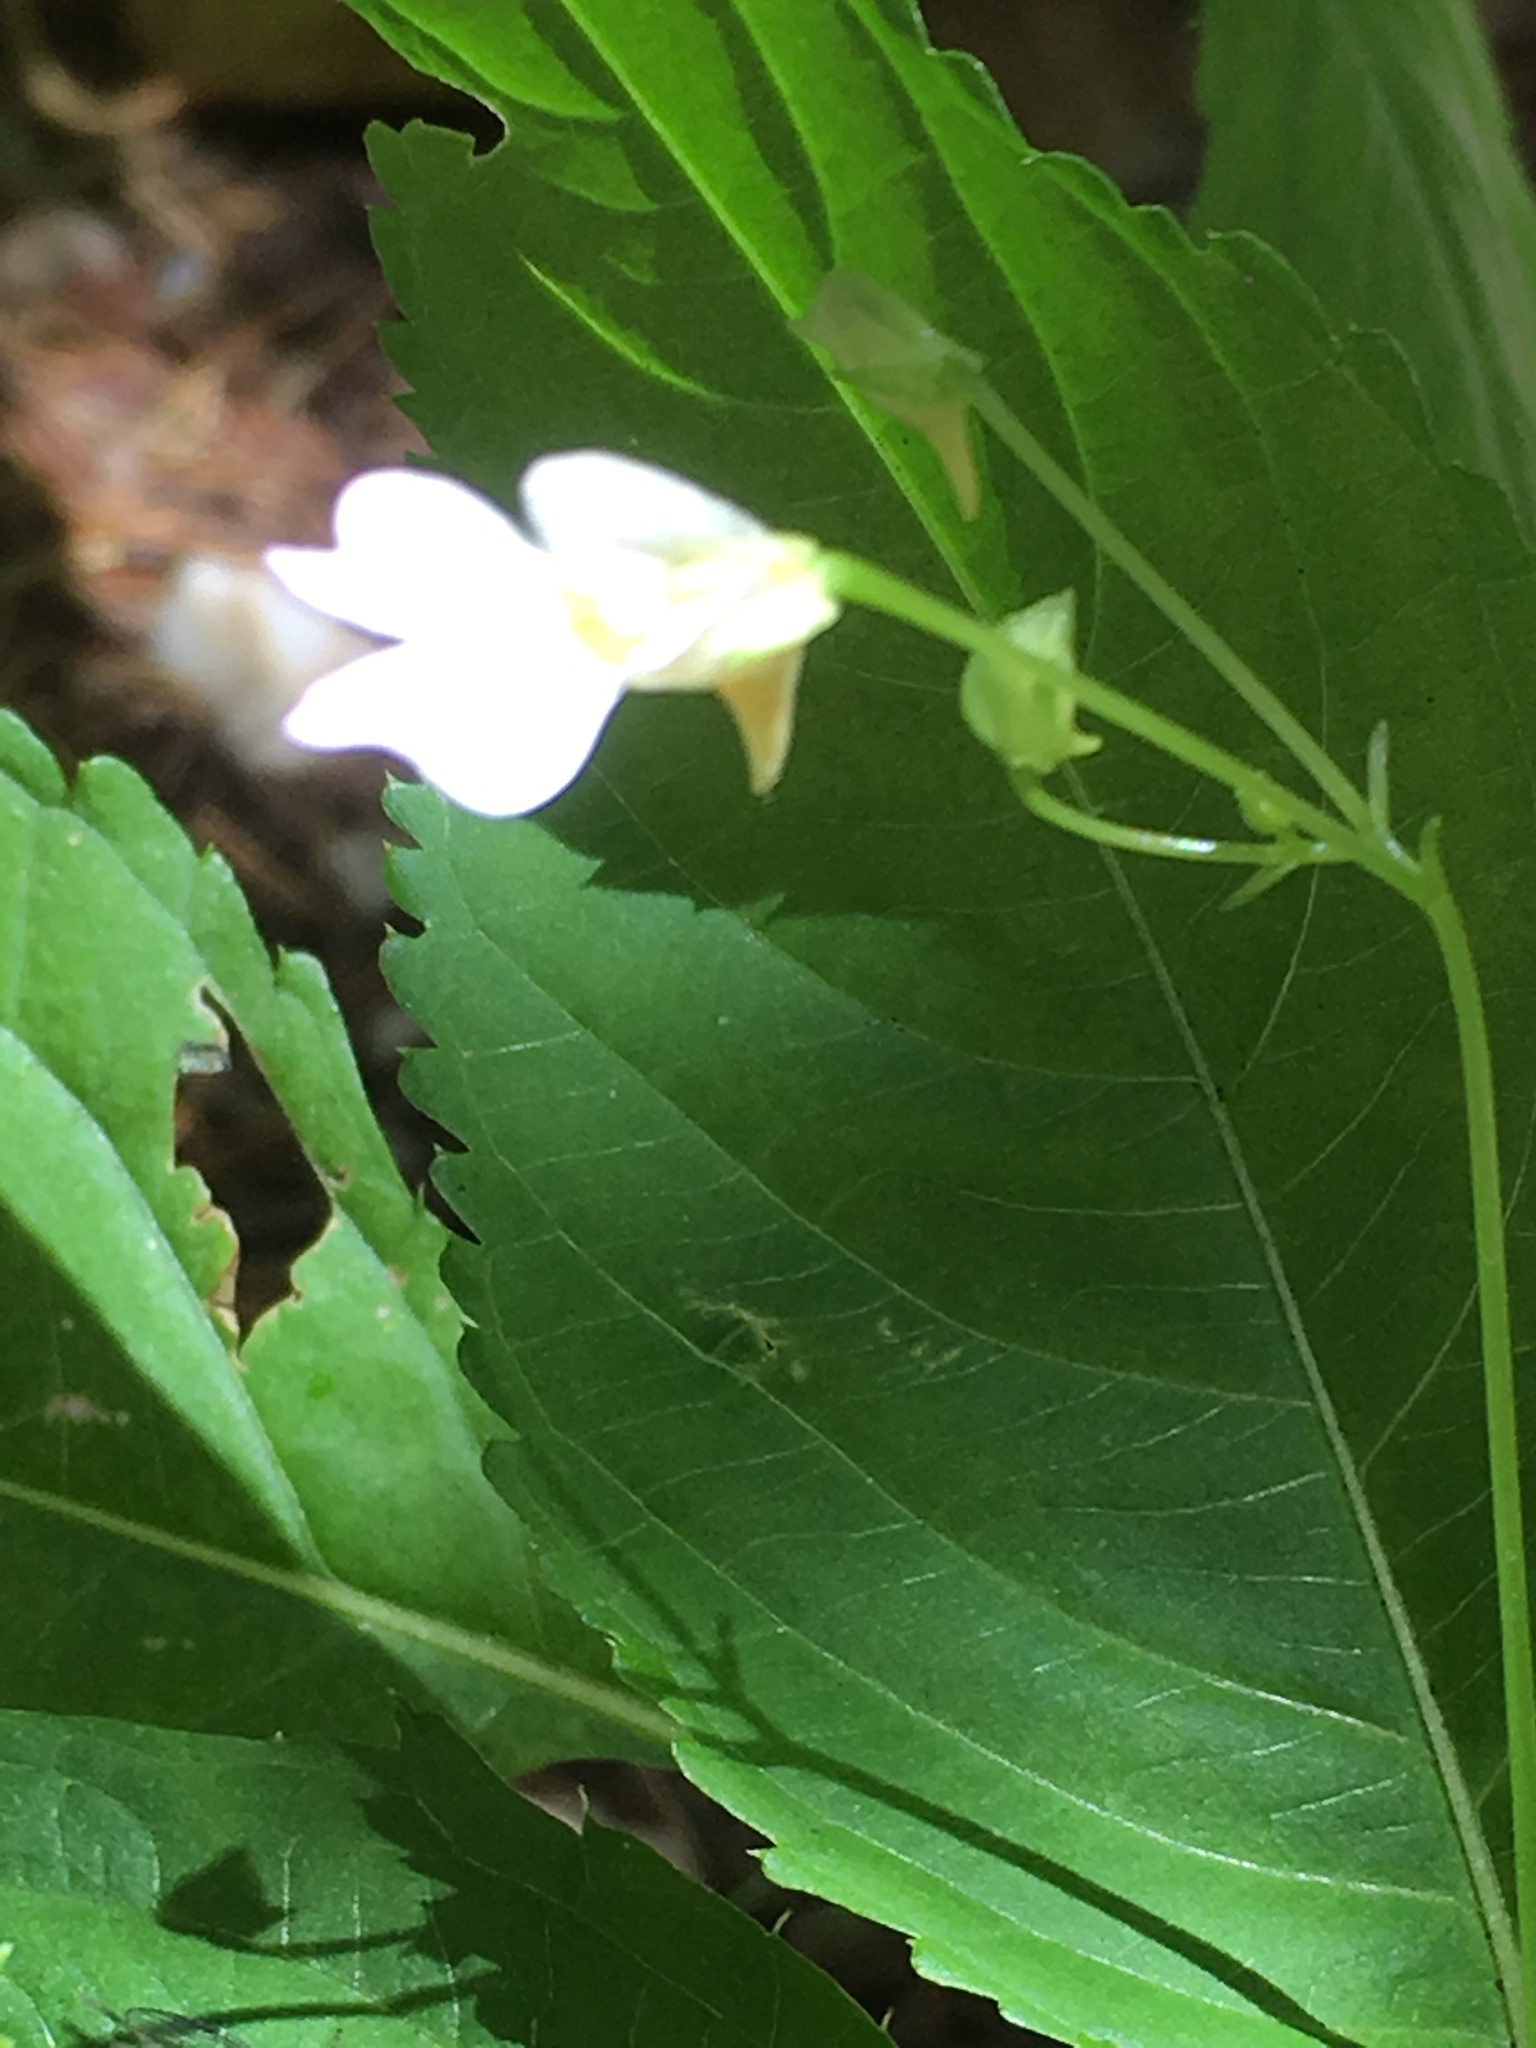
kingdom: Plantae
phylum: Tracheophyta
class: Magnoliopsida
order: Ericales
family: Balsaminaceae
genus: Impatiens
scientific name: Impatiens parviflora
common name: Small balsam
